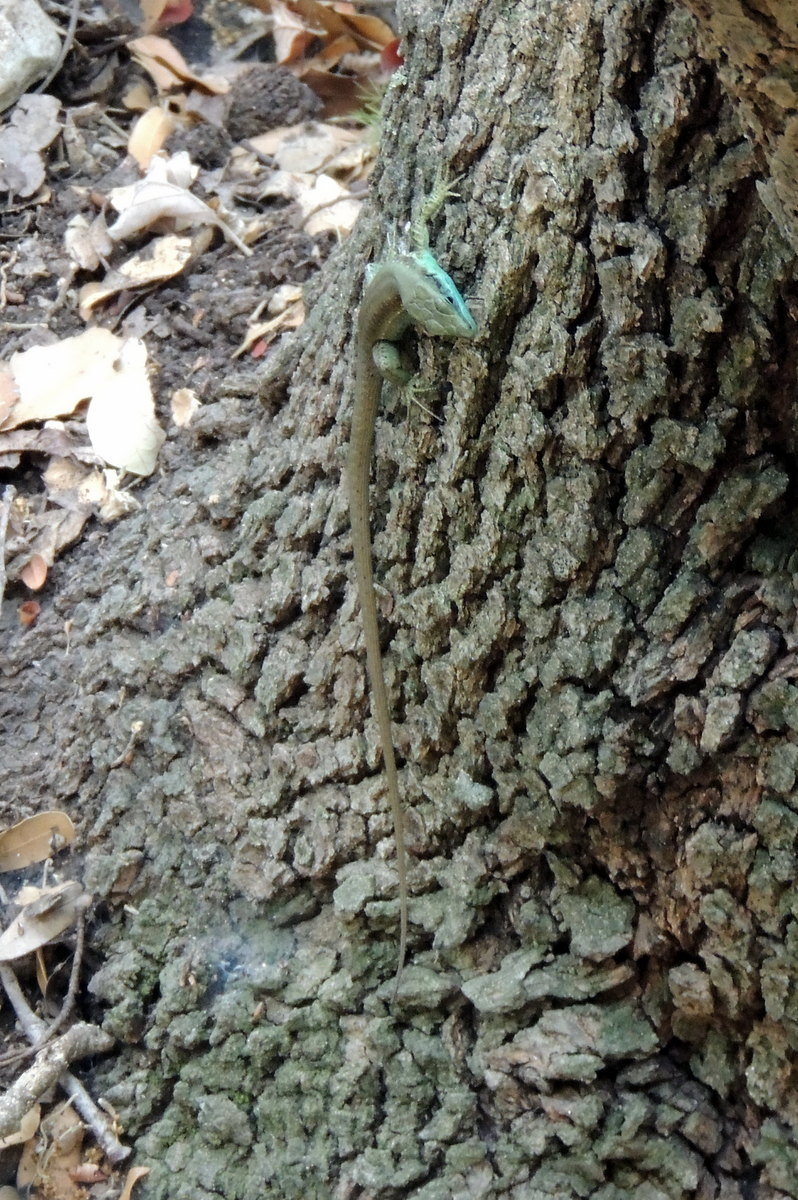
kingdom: Animalia
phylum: Chordata
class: Squamata
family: Lacertidae
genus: Phoenicolacerta
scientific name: Phoenicolacerta laevis
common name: Lebanon lizard
